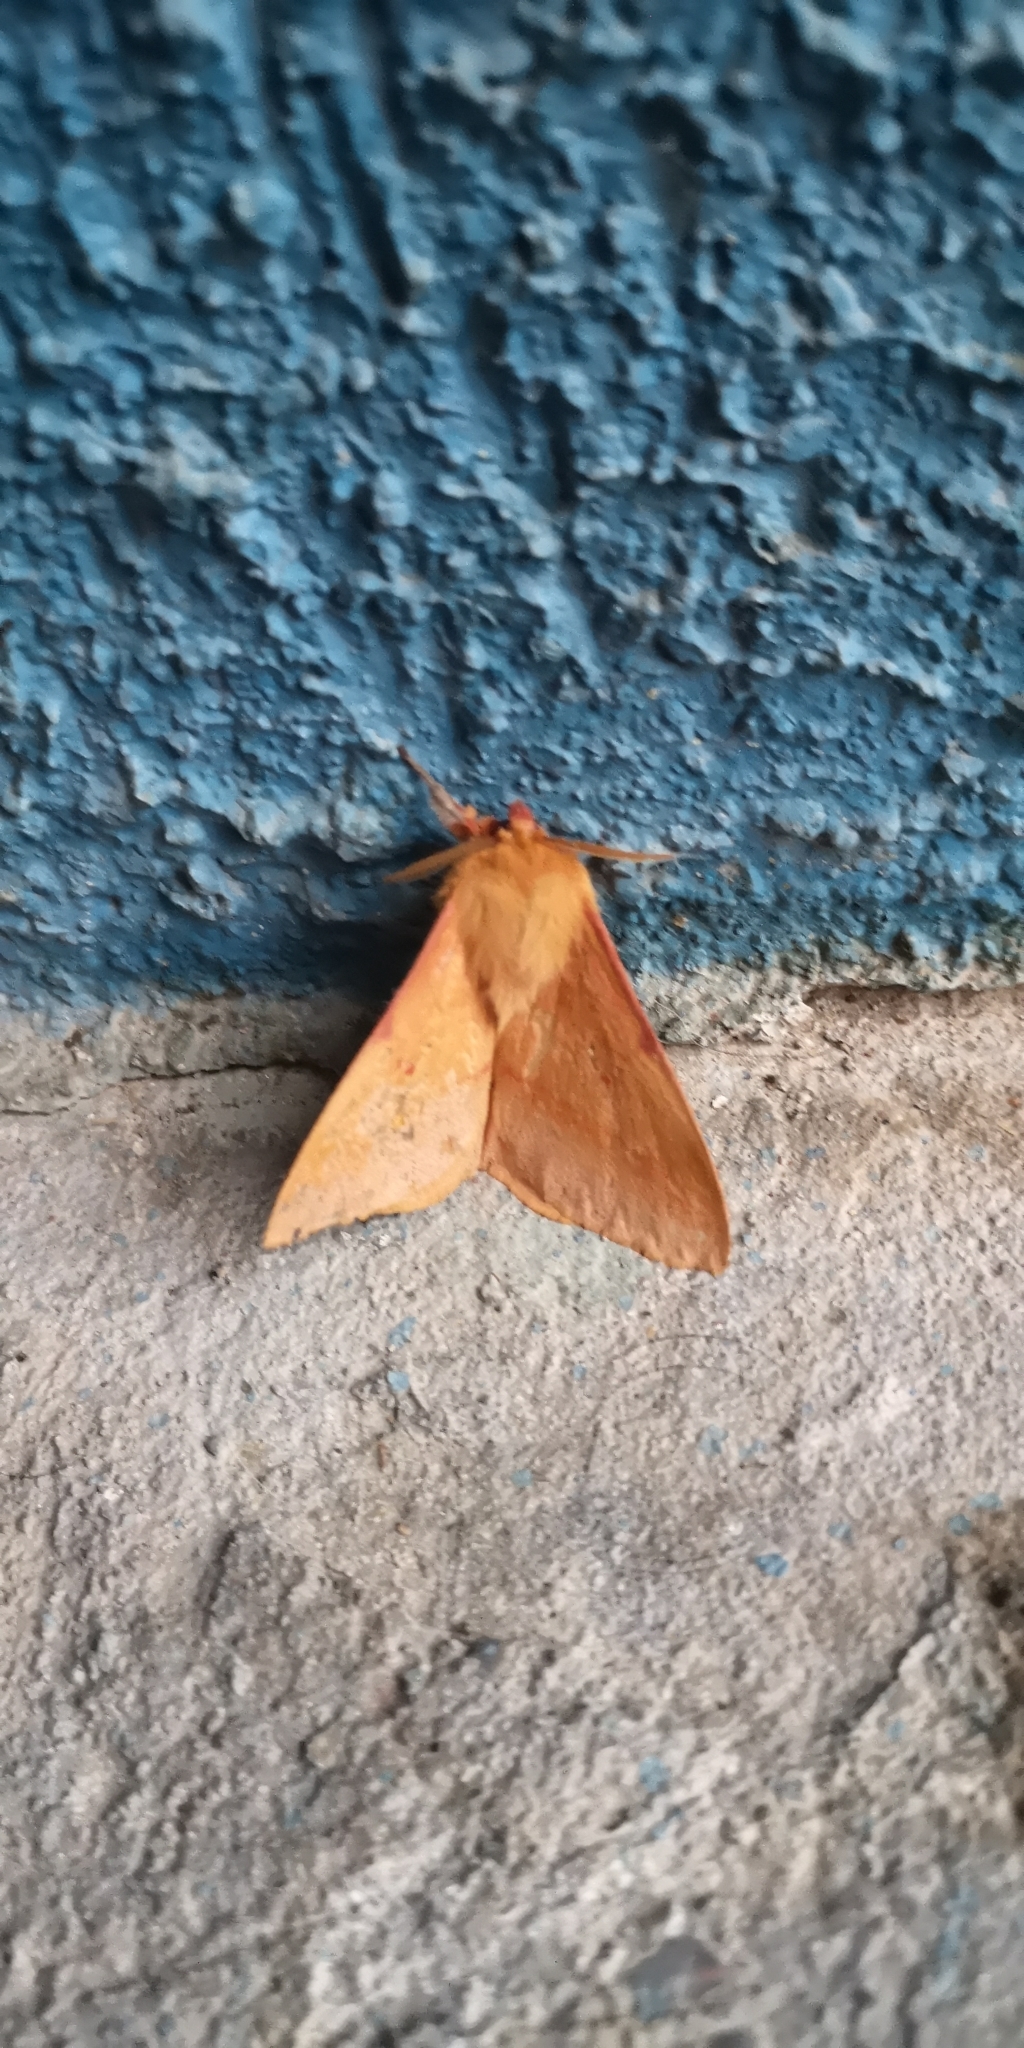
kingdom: Animalia
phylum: Arthropoda
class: Insecta
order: Lepidoptera
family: Saturniidae
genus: Adetomeris
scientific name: Adetomeris erythrops
